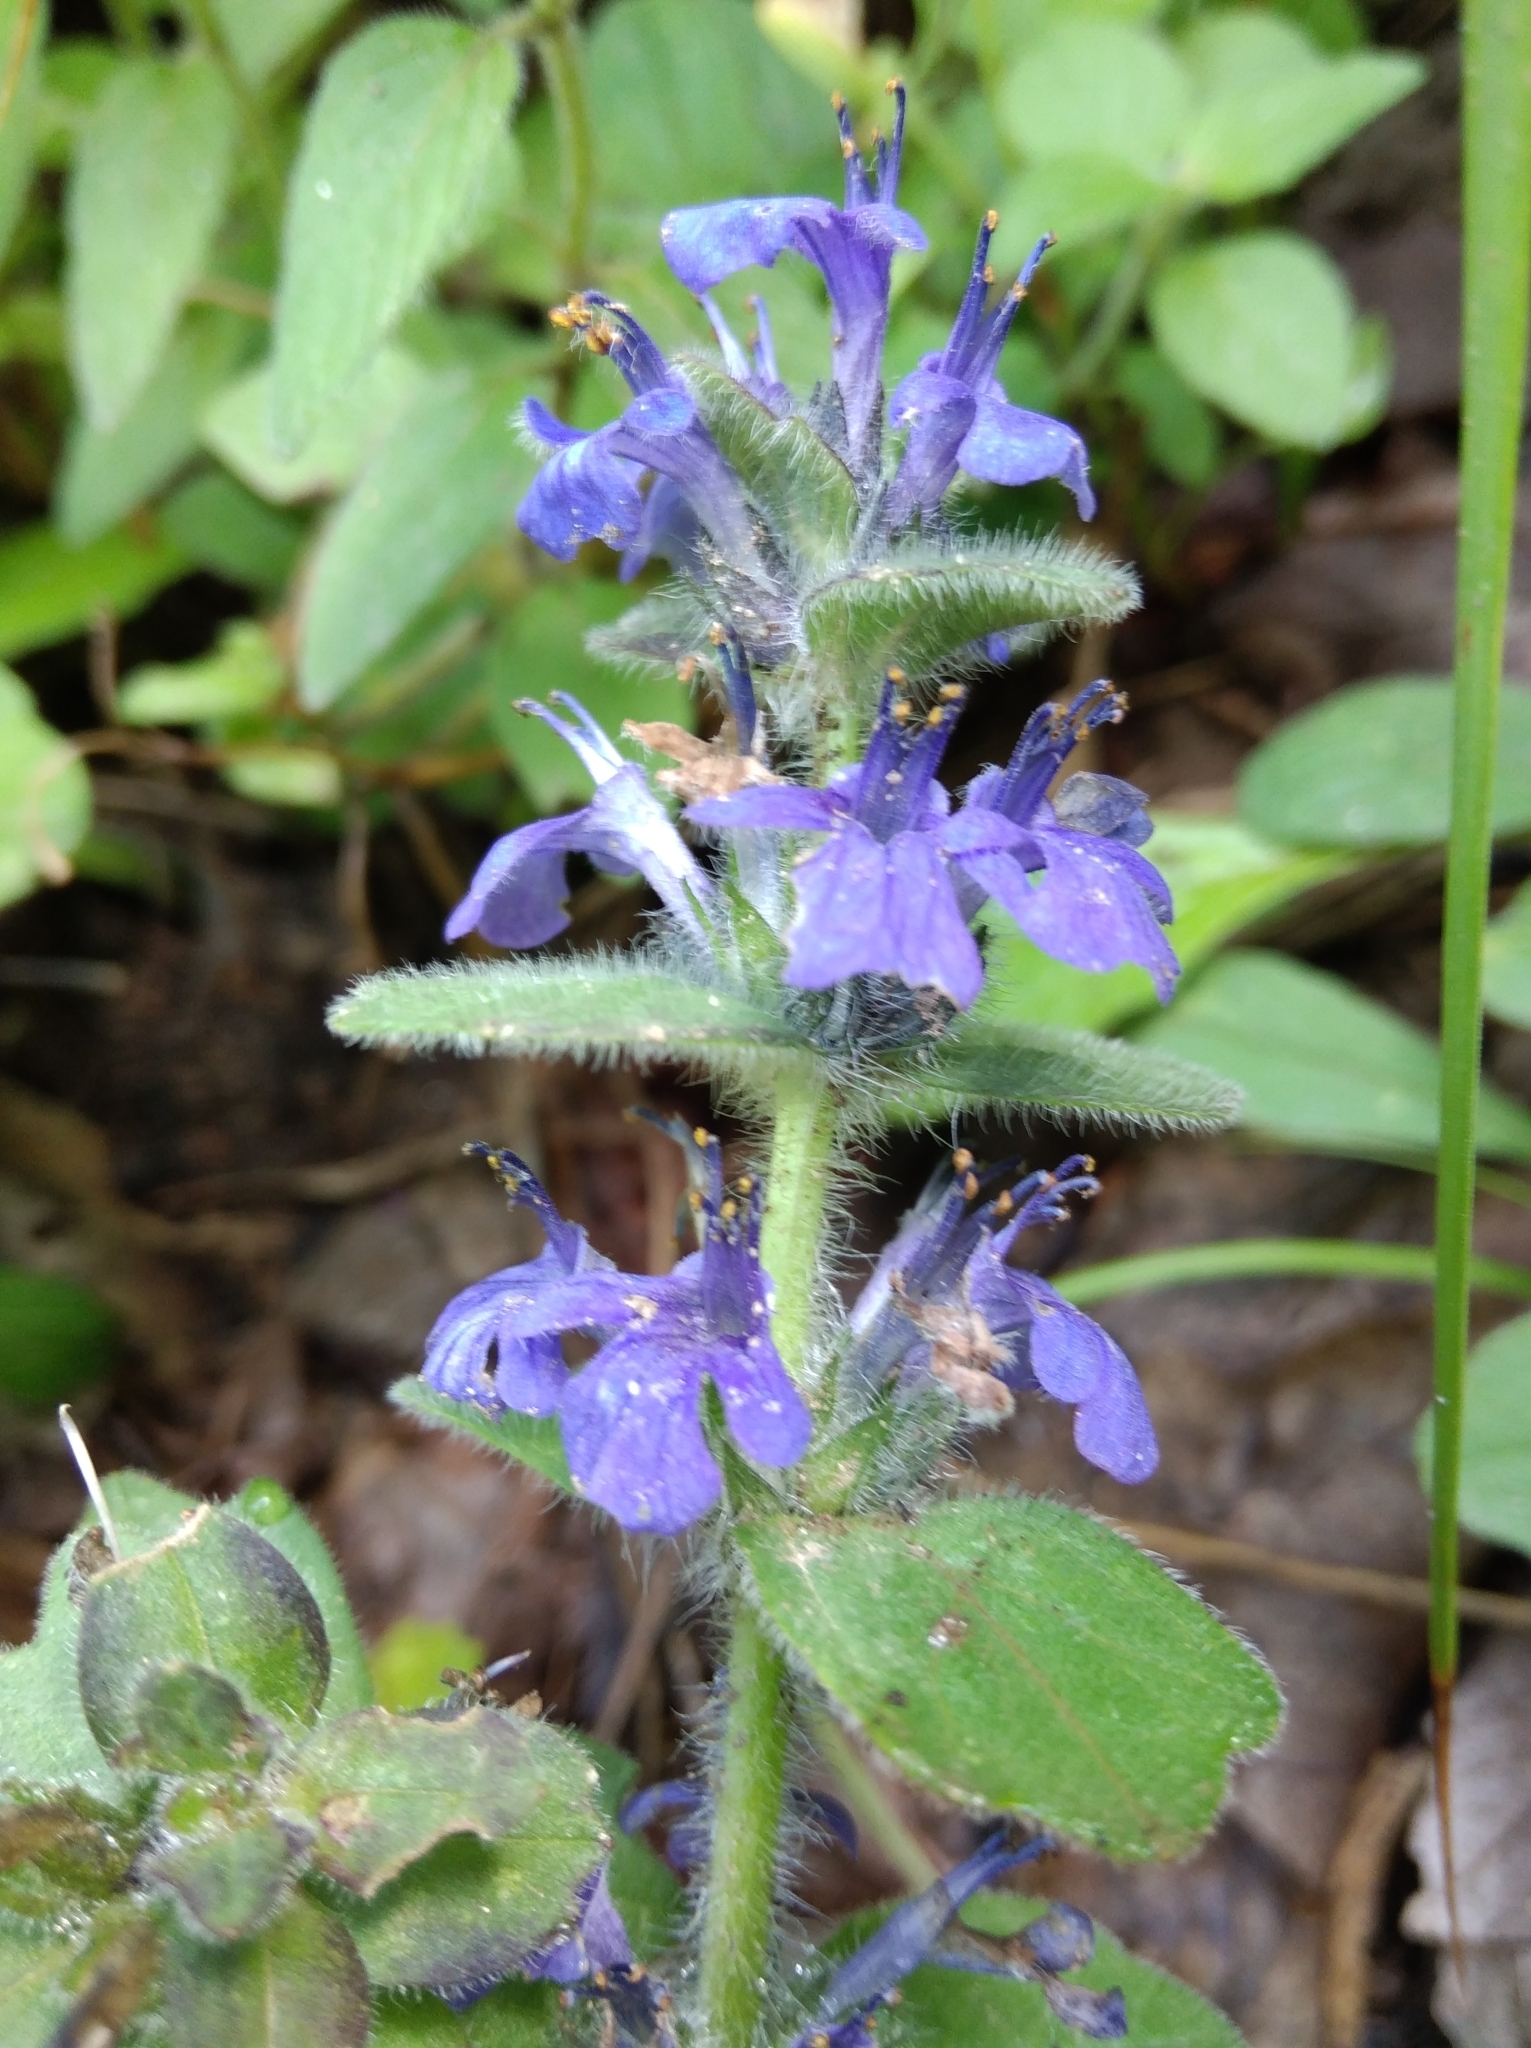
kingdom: Plantae
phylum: Tracheophyta
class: Magnoliopsida
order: Lamiales
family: Lamiaceae
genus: Ajuga
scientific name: Ajuga genevensis
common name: Blue bugle
